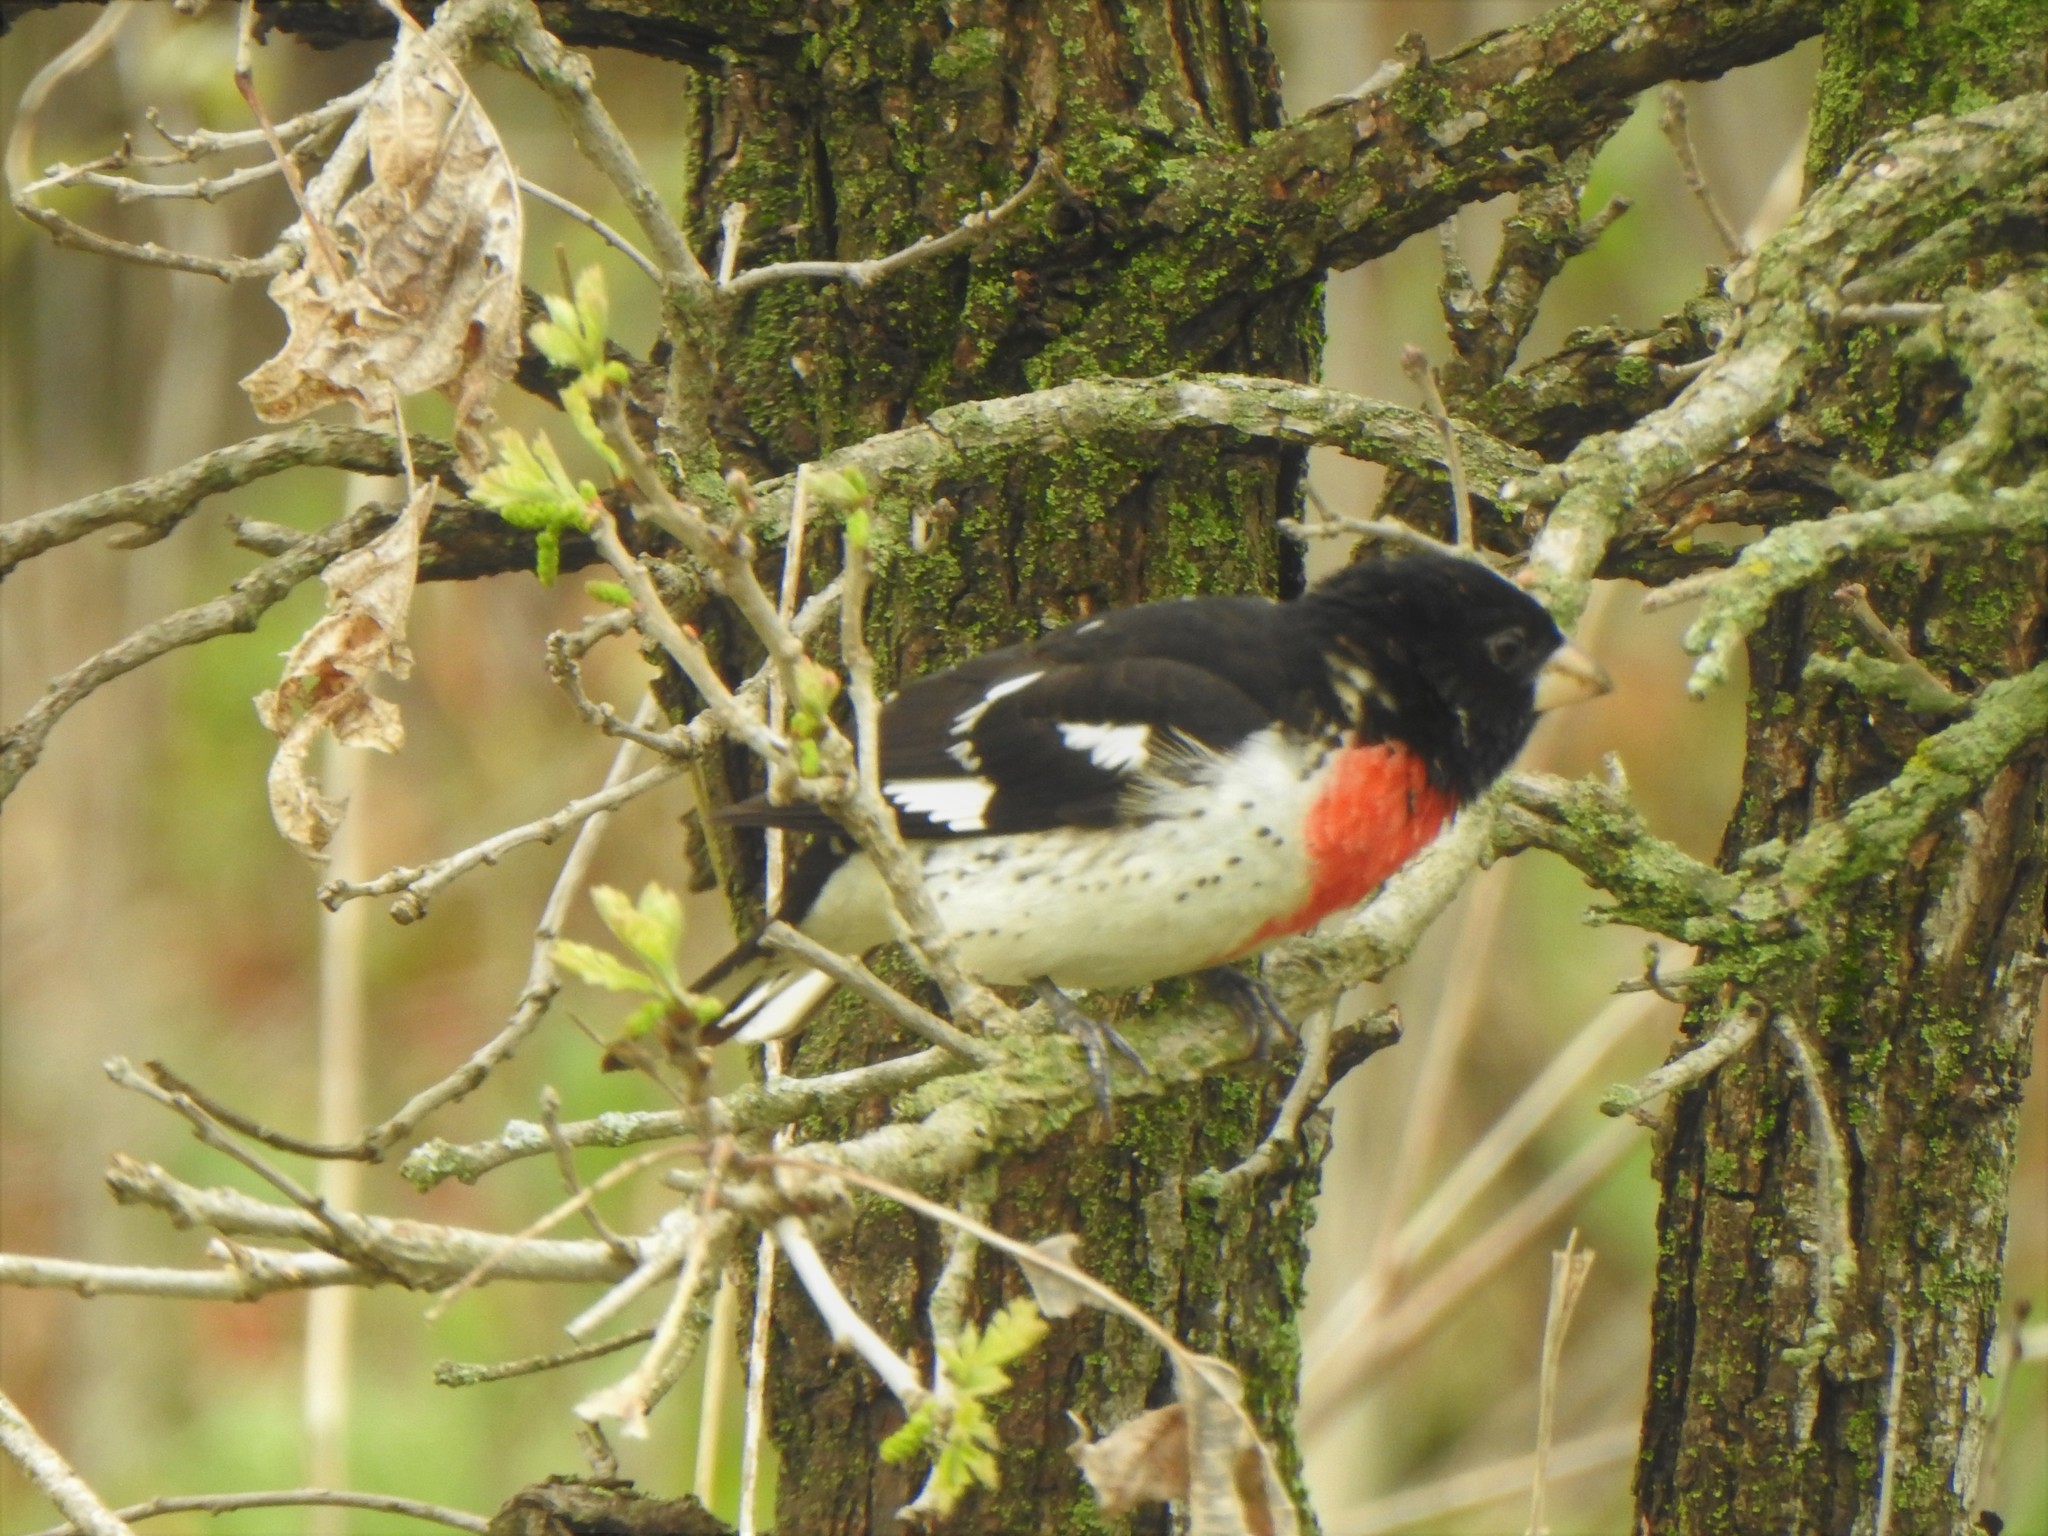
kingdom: Animalia
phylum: Chordata
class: Aves
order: Passeriformes
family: Cardinalidae
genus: Pheucticus
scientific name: Pheucticus ludovicianus
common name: Rose-breasted grosbeak
